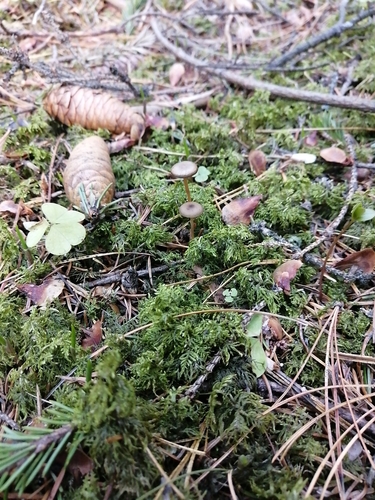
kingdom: Fungi
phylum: Basidiomycota
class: Agaricomycetes
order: Agaricales
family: Physalacriaceae
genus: Strobilurus
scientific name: Strobilurus esculentus
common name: Sprucecone cap
